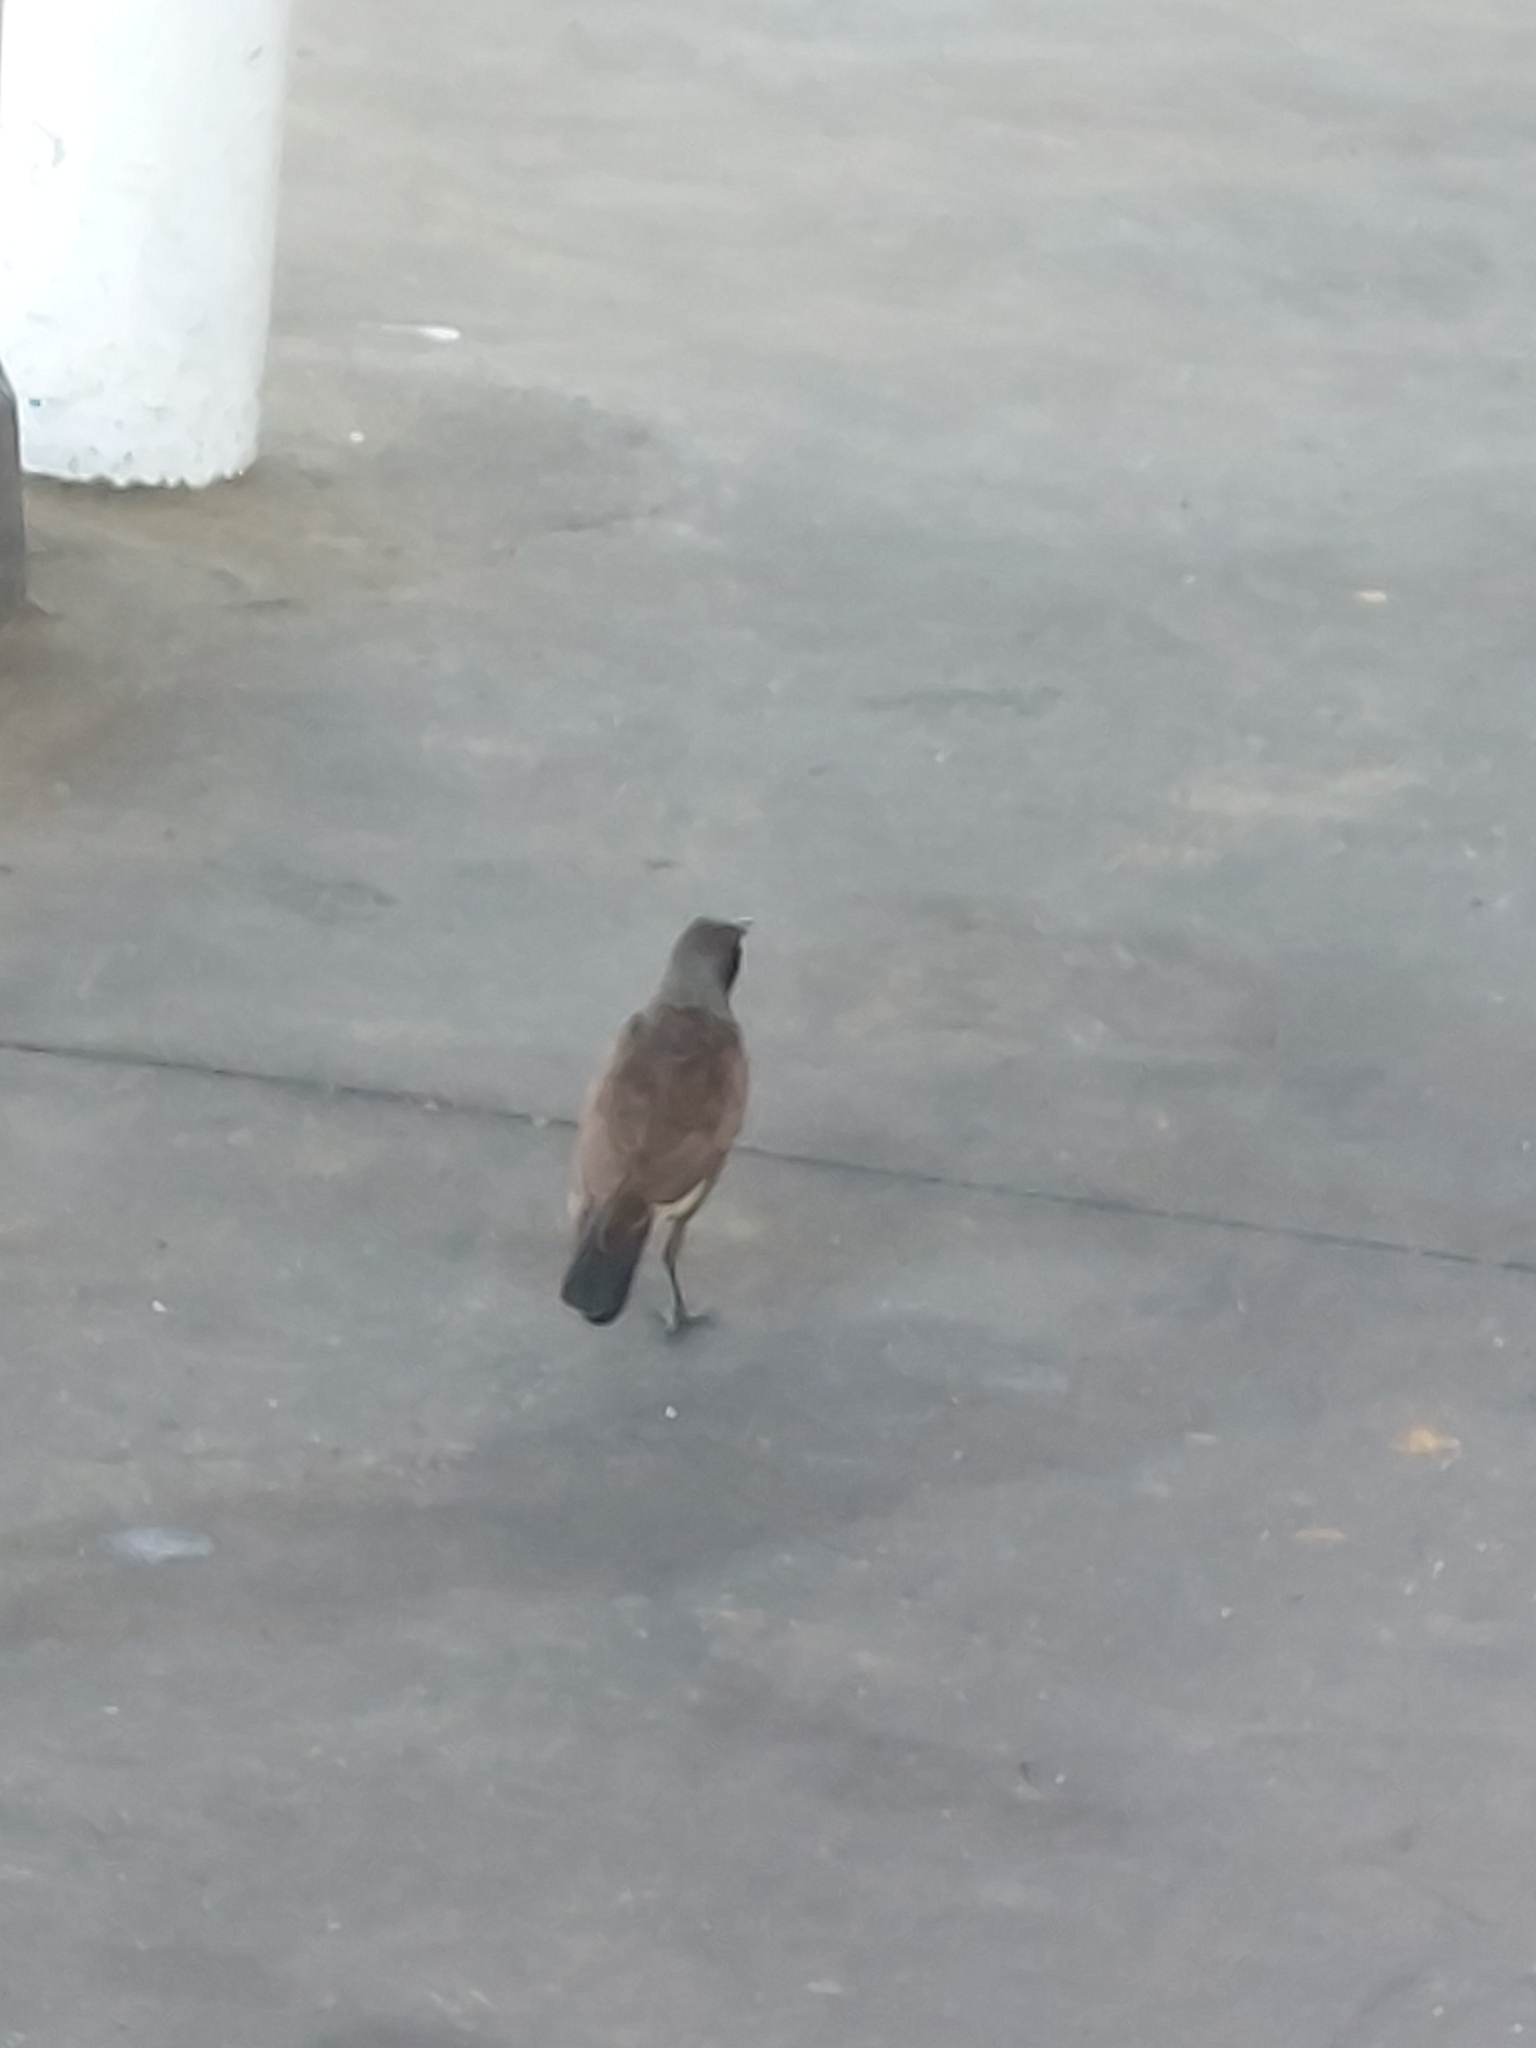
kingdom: Animalia
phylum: Chordata
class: Aves
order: Passeriformes
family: Sturnidae
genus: Acridotheres
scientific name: Acridotheres tristis
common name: Common myna
